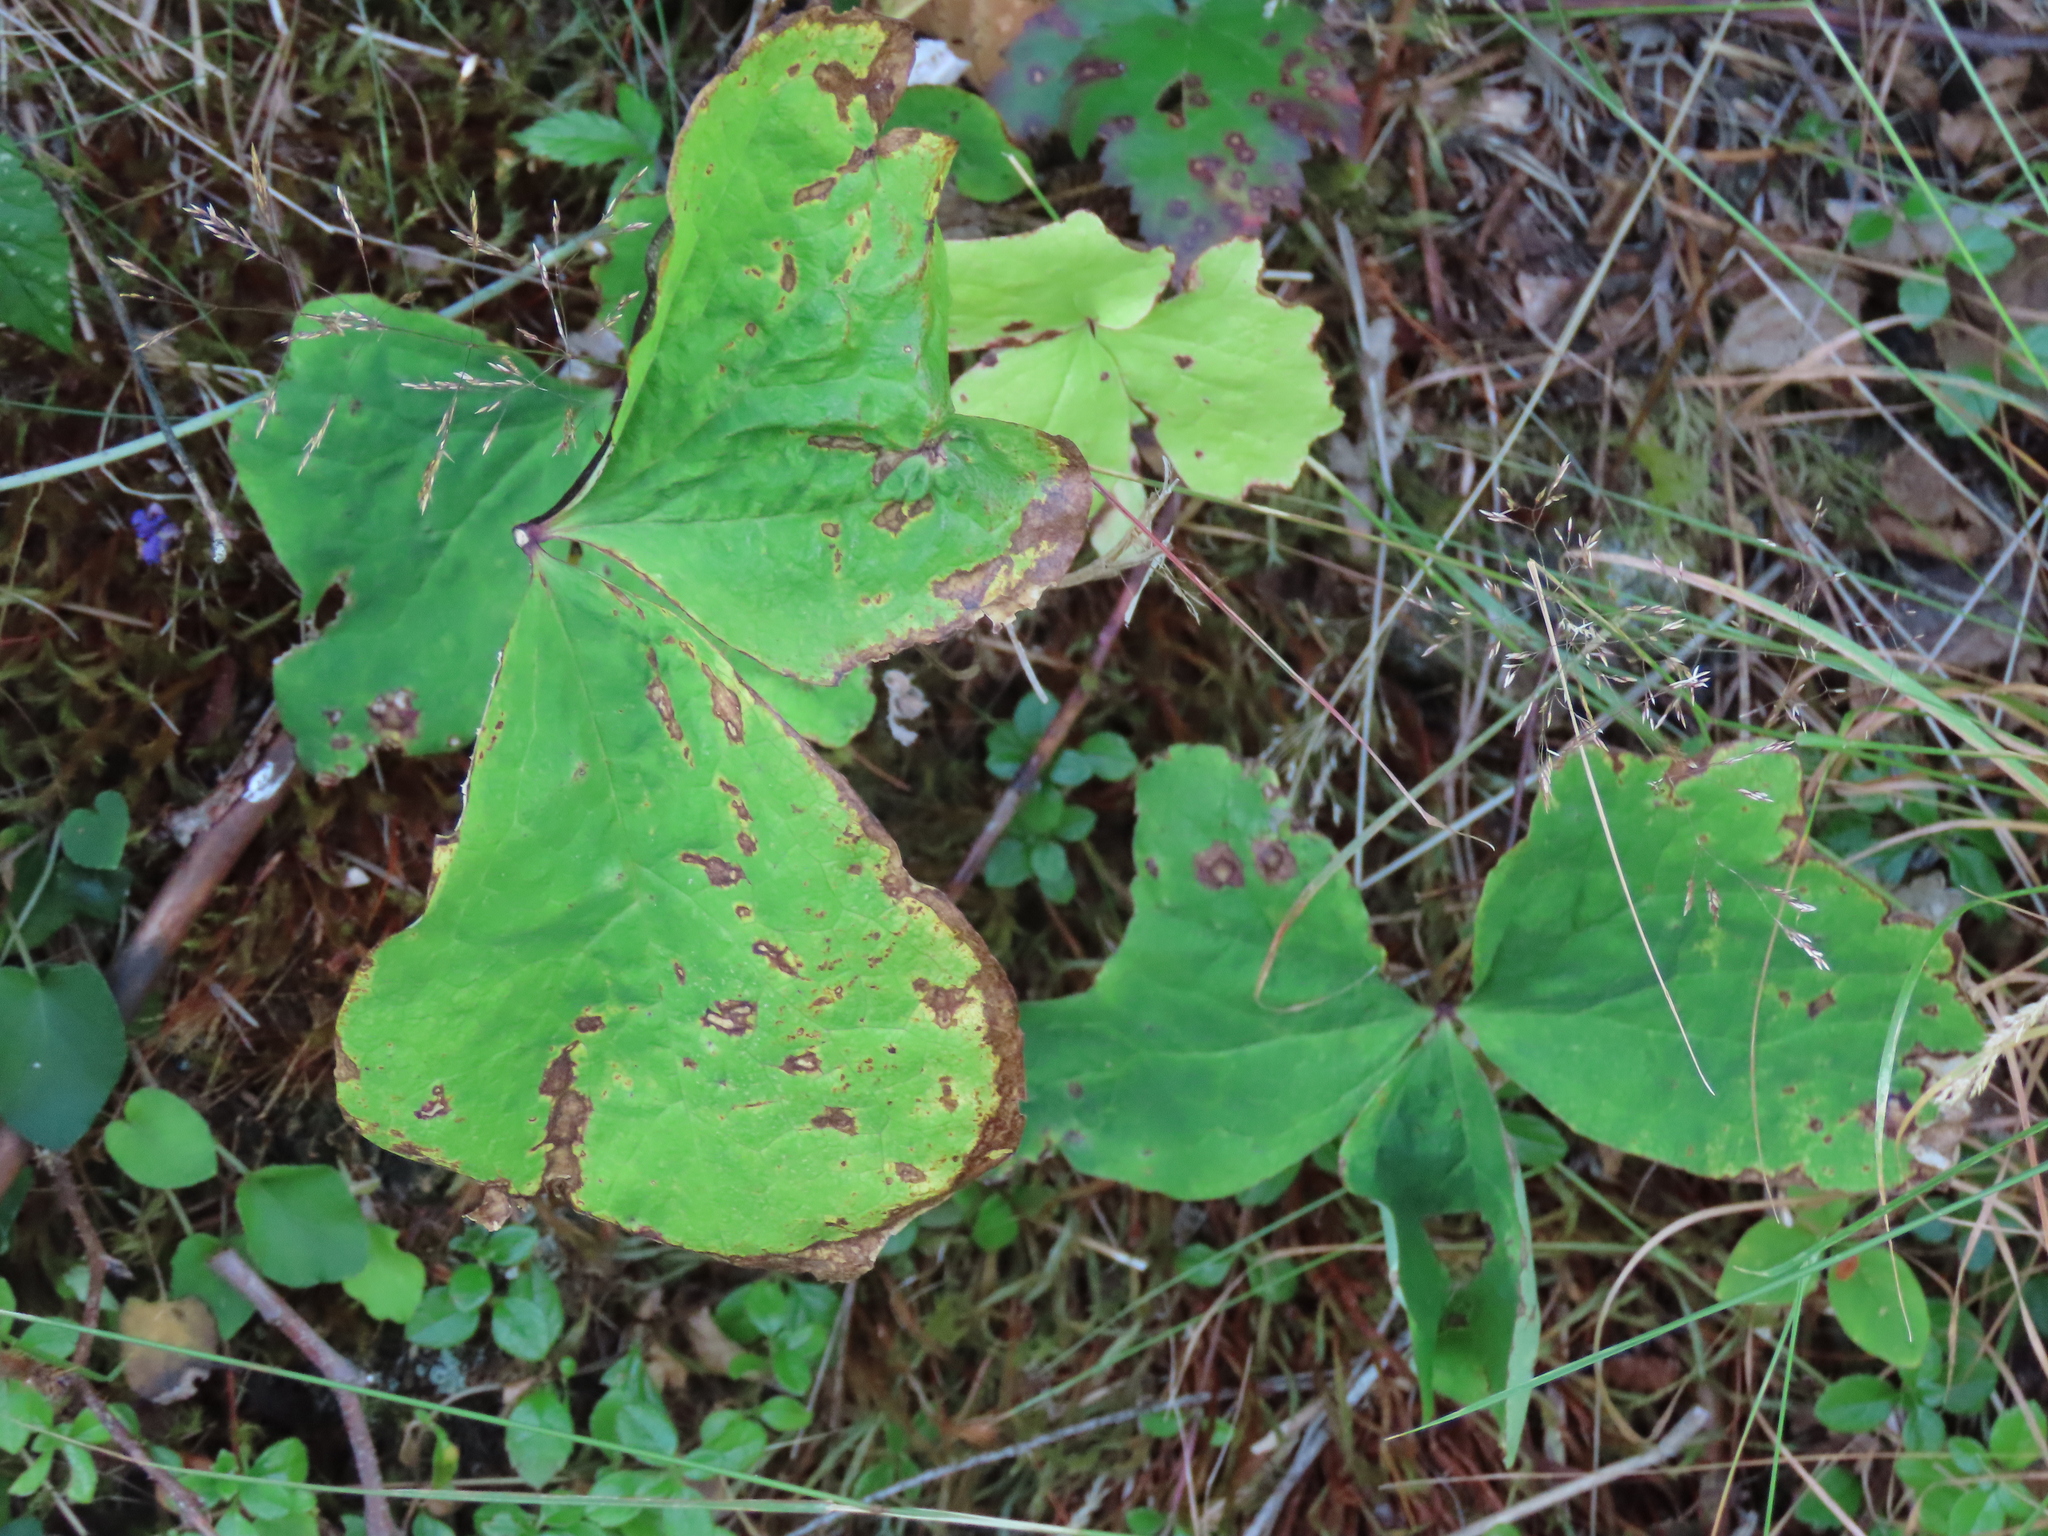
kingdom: Plantae
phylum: Tracheophyta
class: Magnoliopsida
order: Ranunculales
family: Berberidaceae
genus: Achlys
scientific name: Achlys triphylla
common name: Vanilla-leaf
